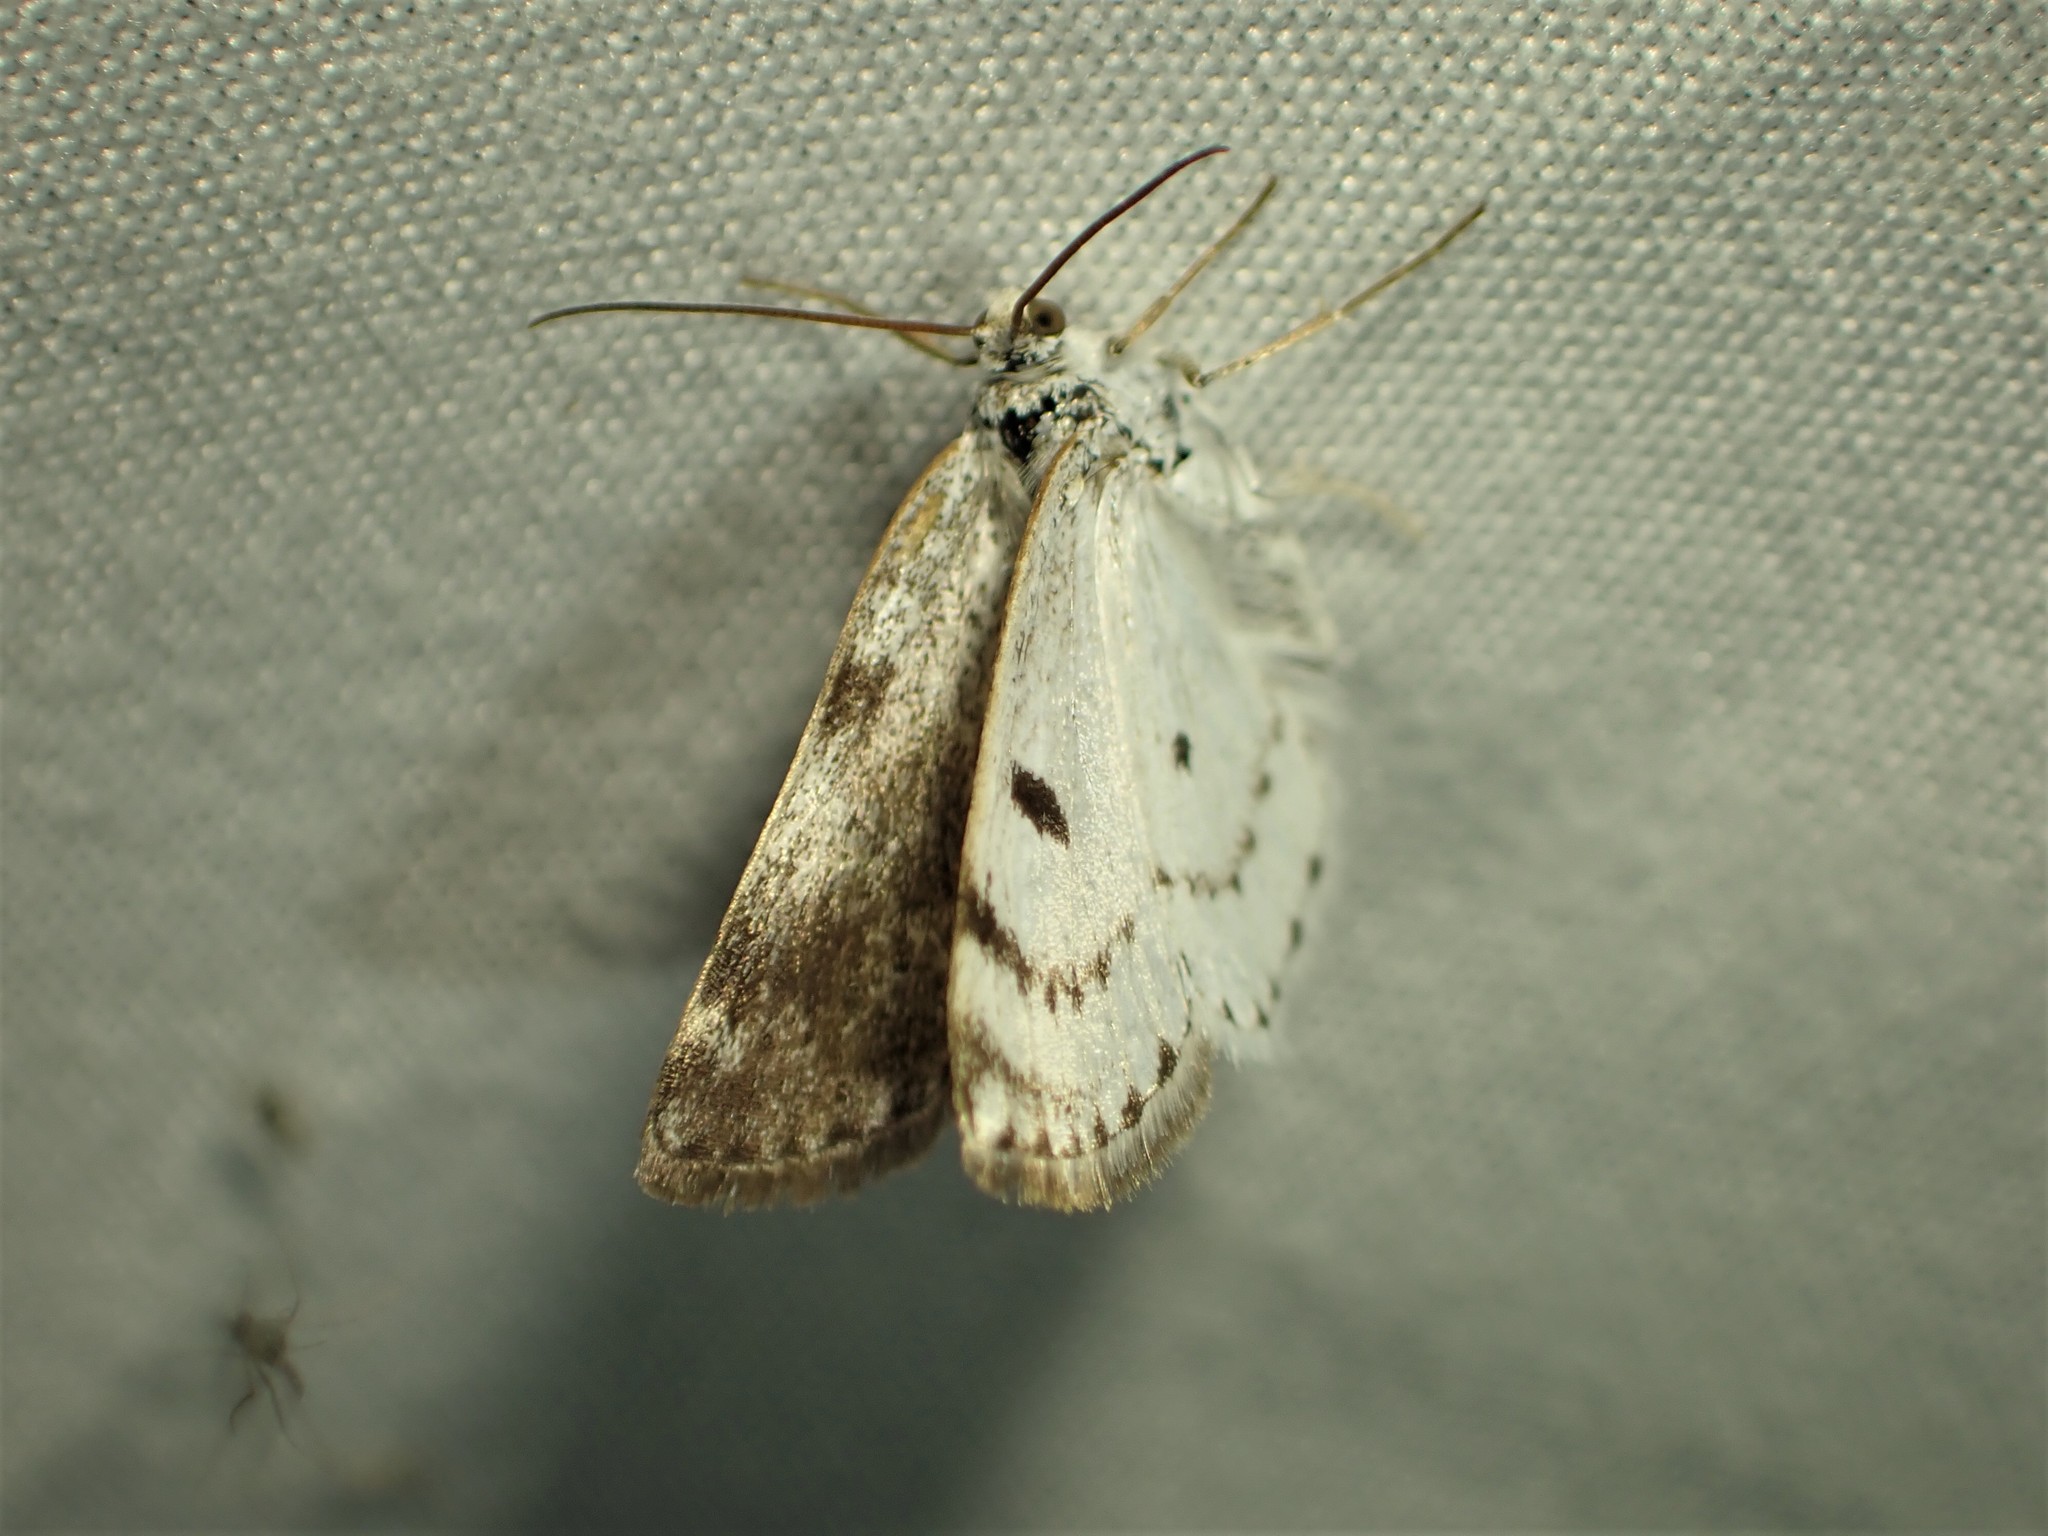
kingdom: Animalia
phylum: Arthropoda
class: Insecta
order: Lepidoptera
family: Geometridae
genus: Lomographa
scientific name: Lomographa semiclarata
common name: Bluish spring moth
